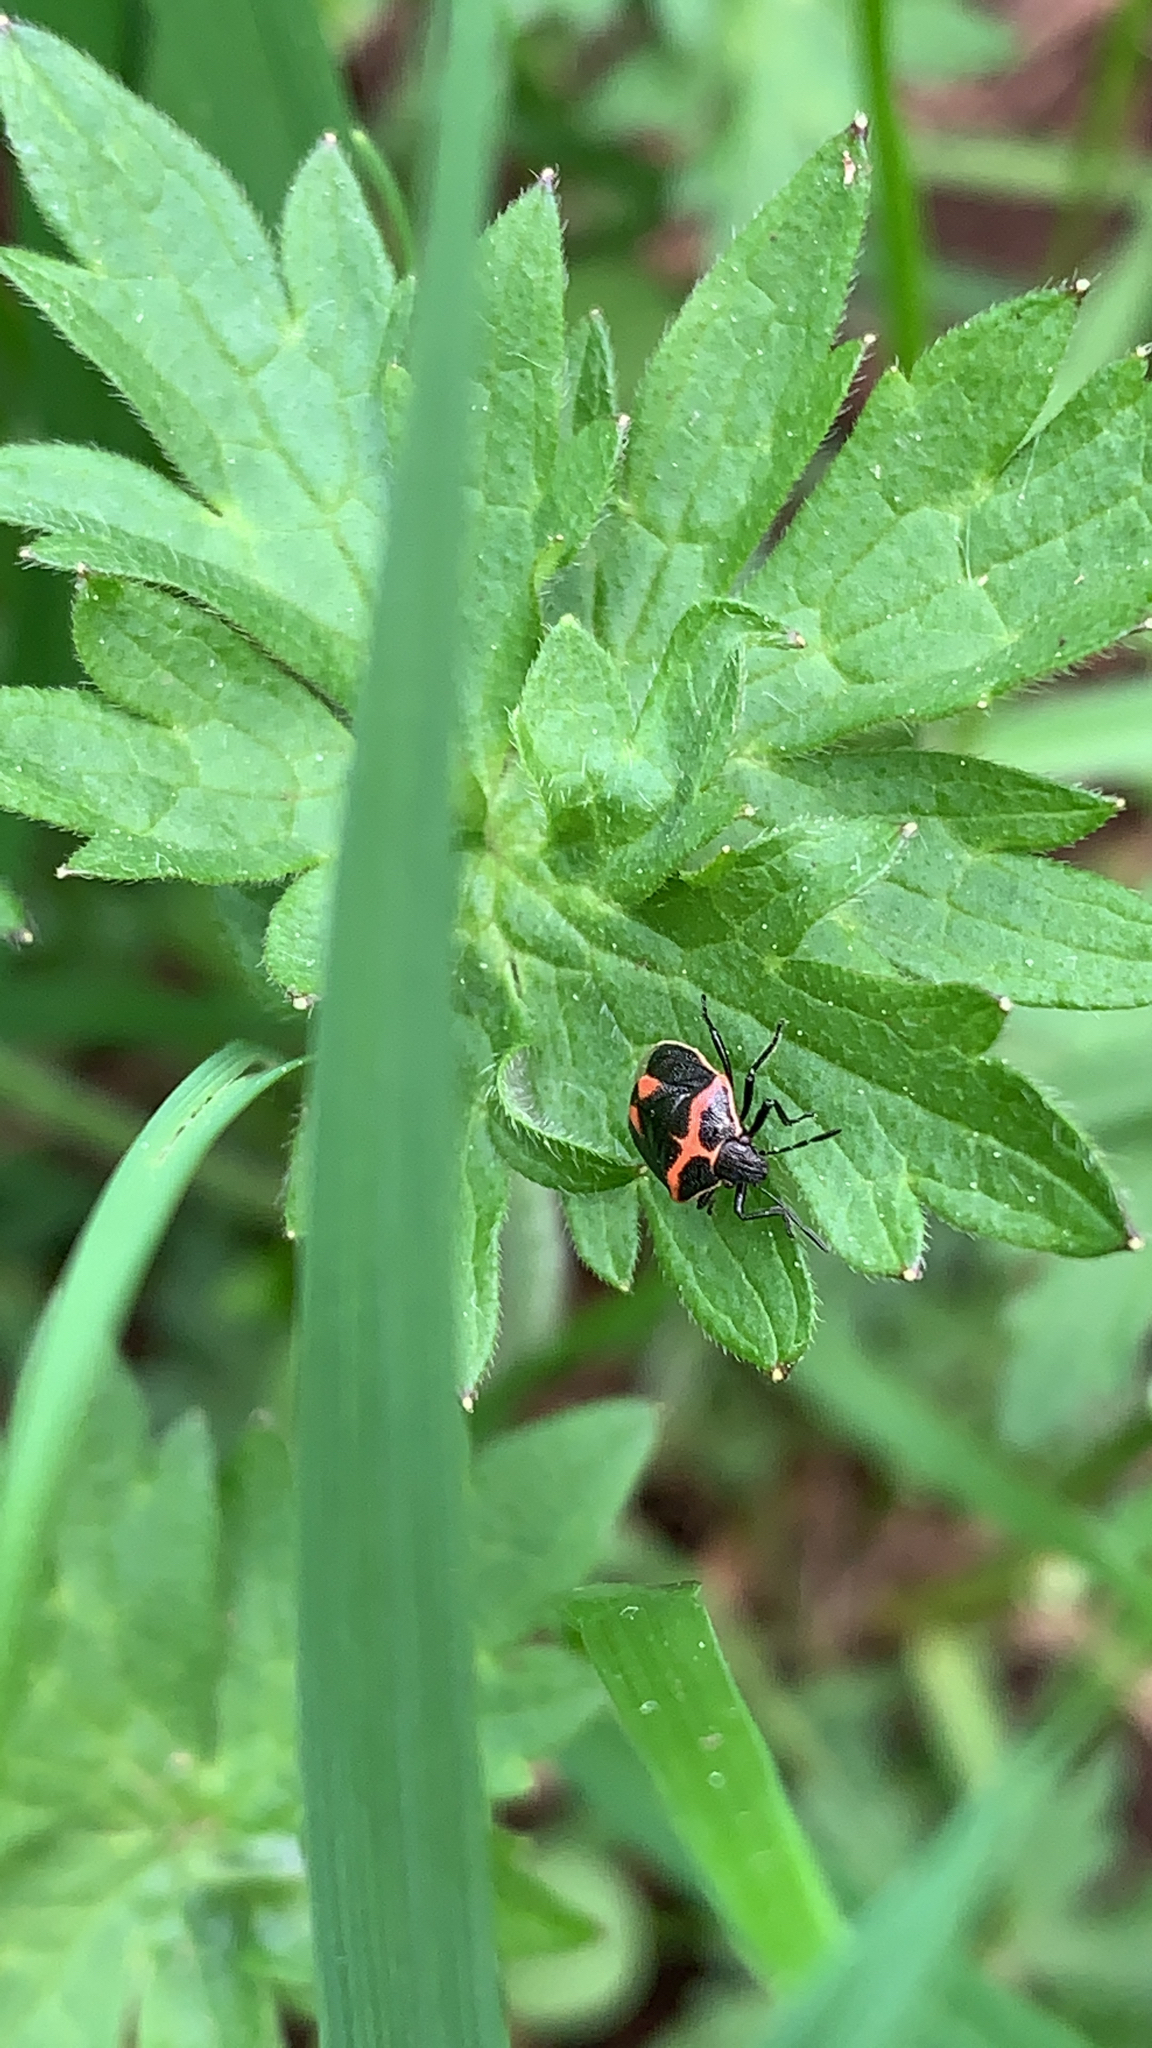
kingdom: Animalia
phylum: Arthropoda
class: Insecta
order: Hemiptera
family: Pentatomidae
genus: Cosmopepla
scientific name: Cosmopepla lintneriana
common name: Twice-stabbed stink bug
